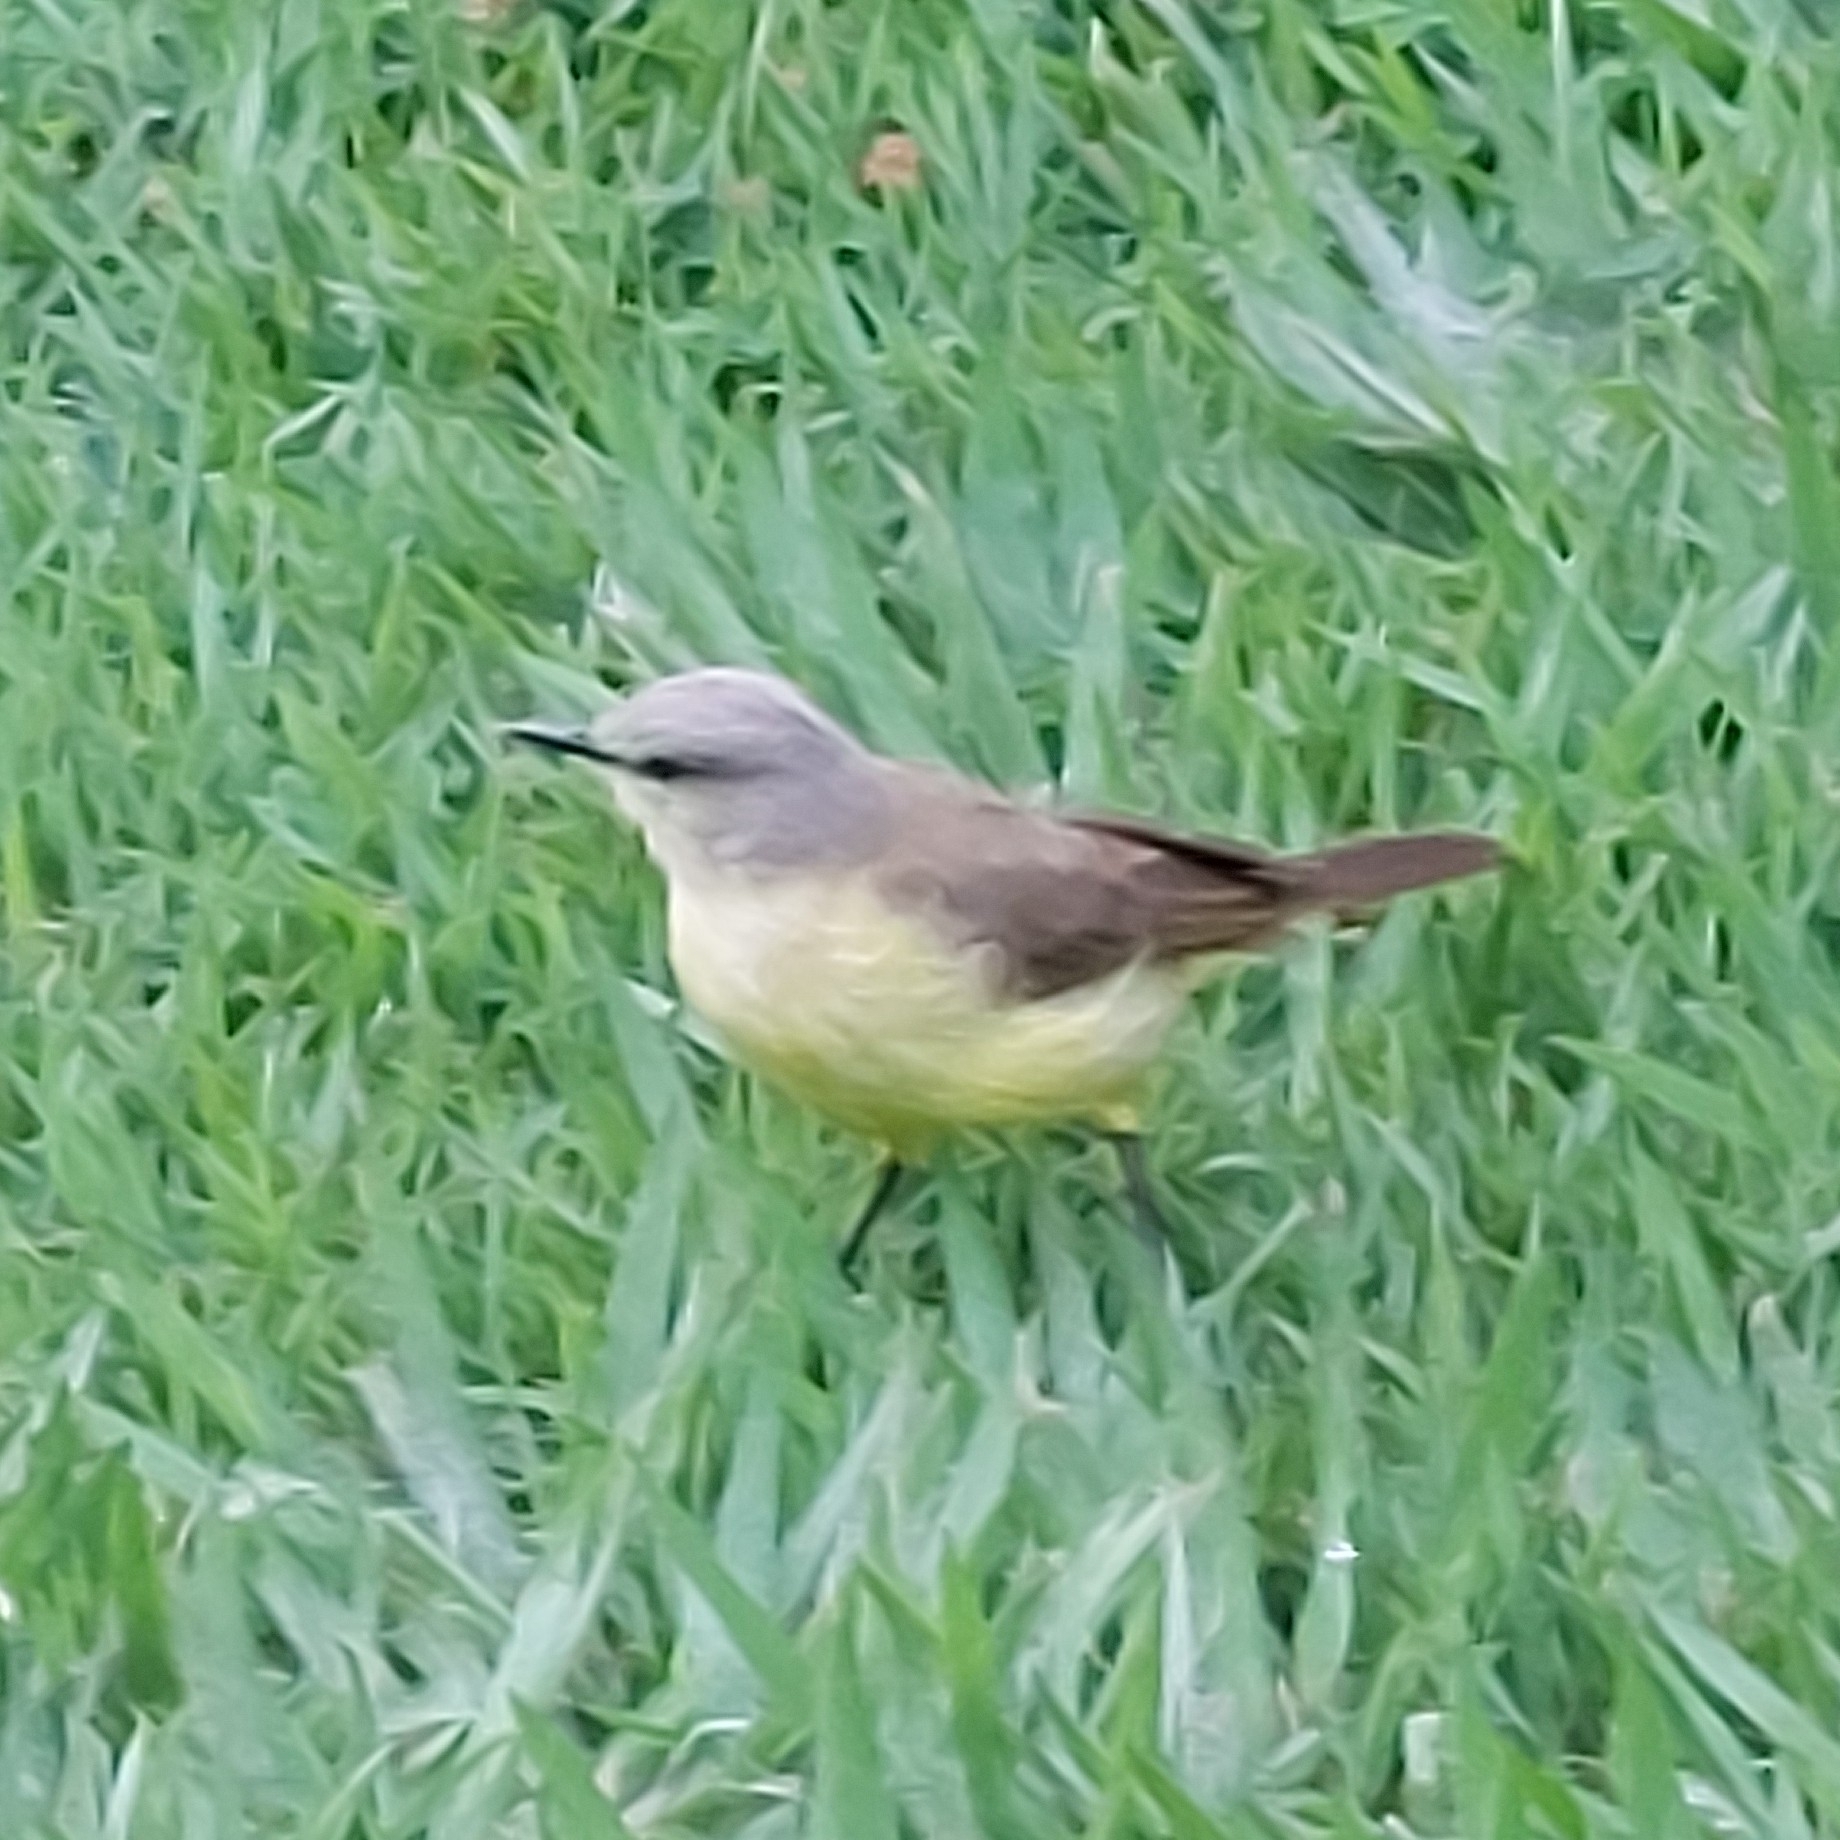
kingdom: Animalia
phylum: Chordata
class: Aves
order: Passeriformes
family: Tyrannidae
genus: Machetornis
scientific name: Machetornis rixosa
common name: Cattle tyrant
